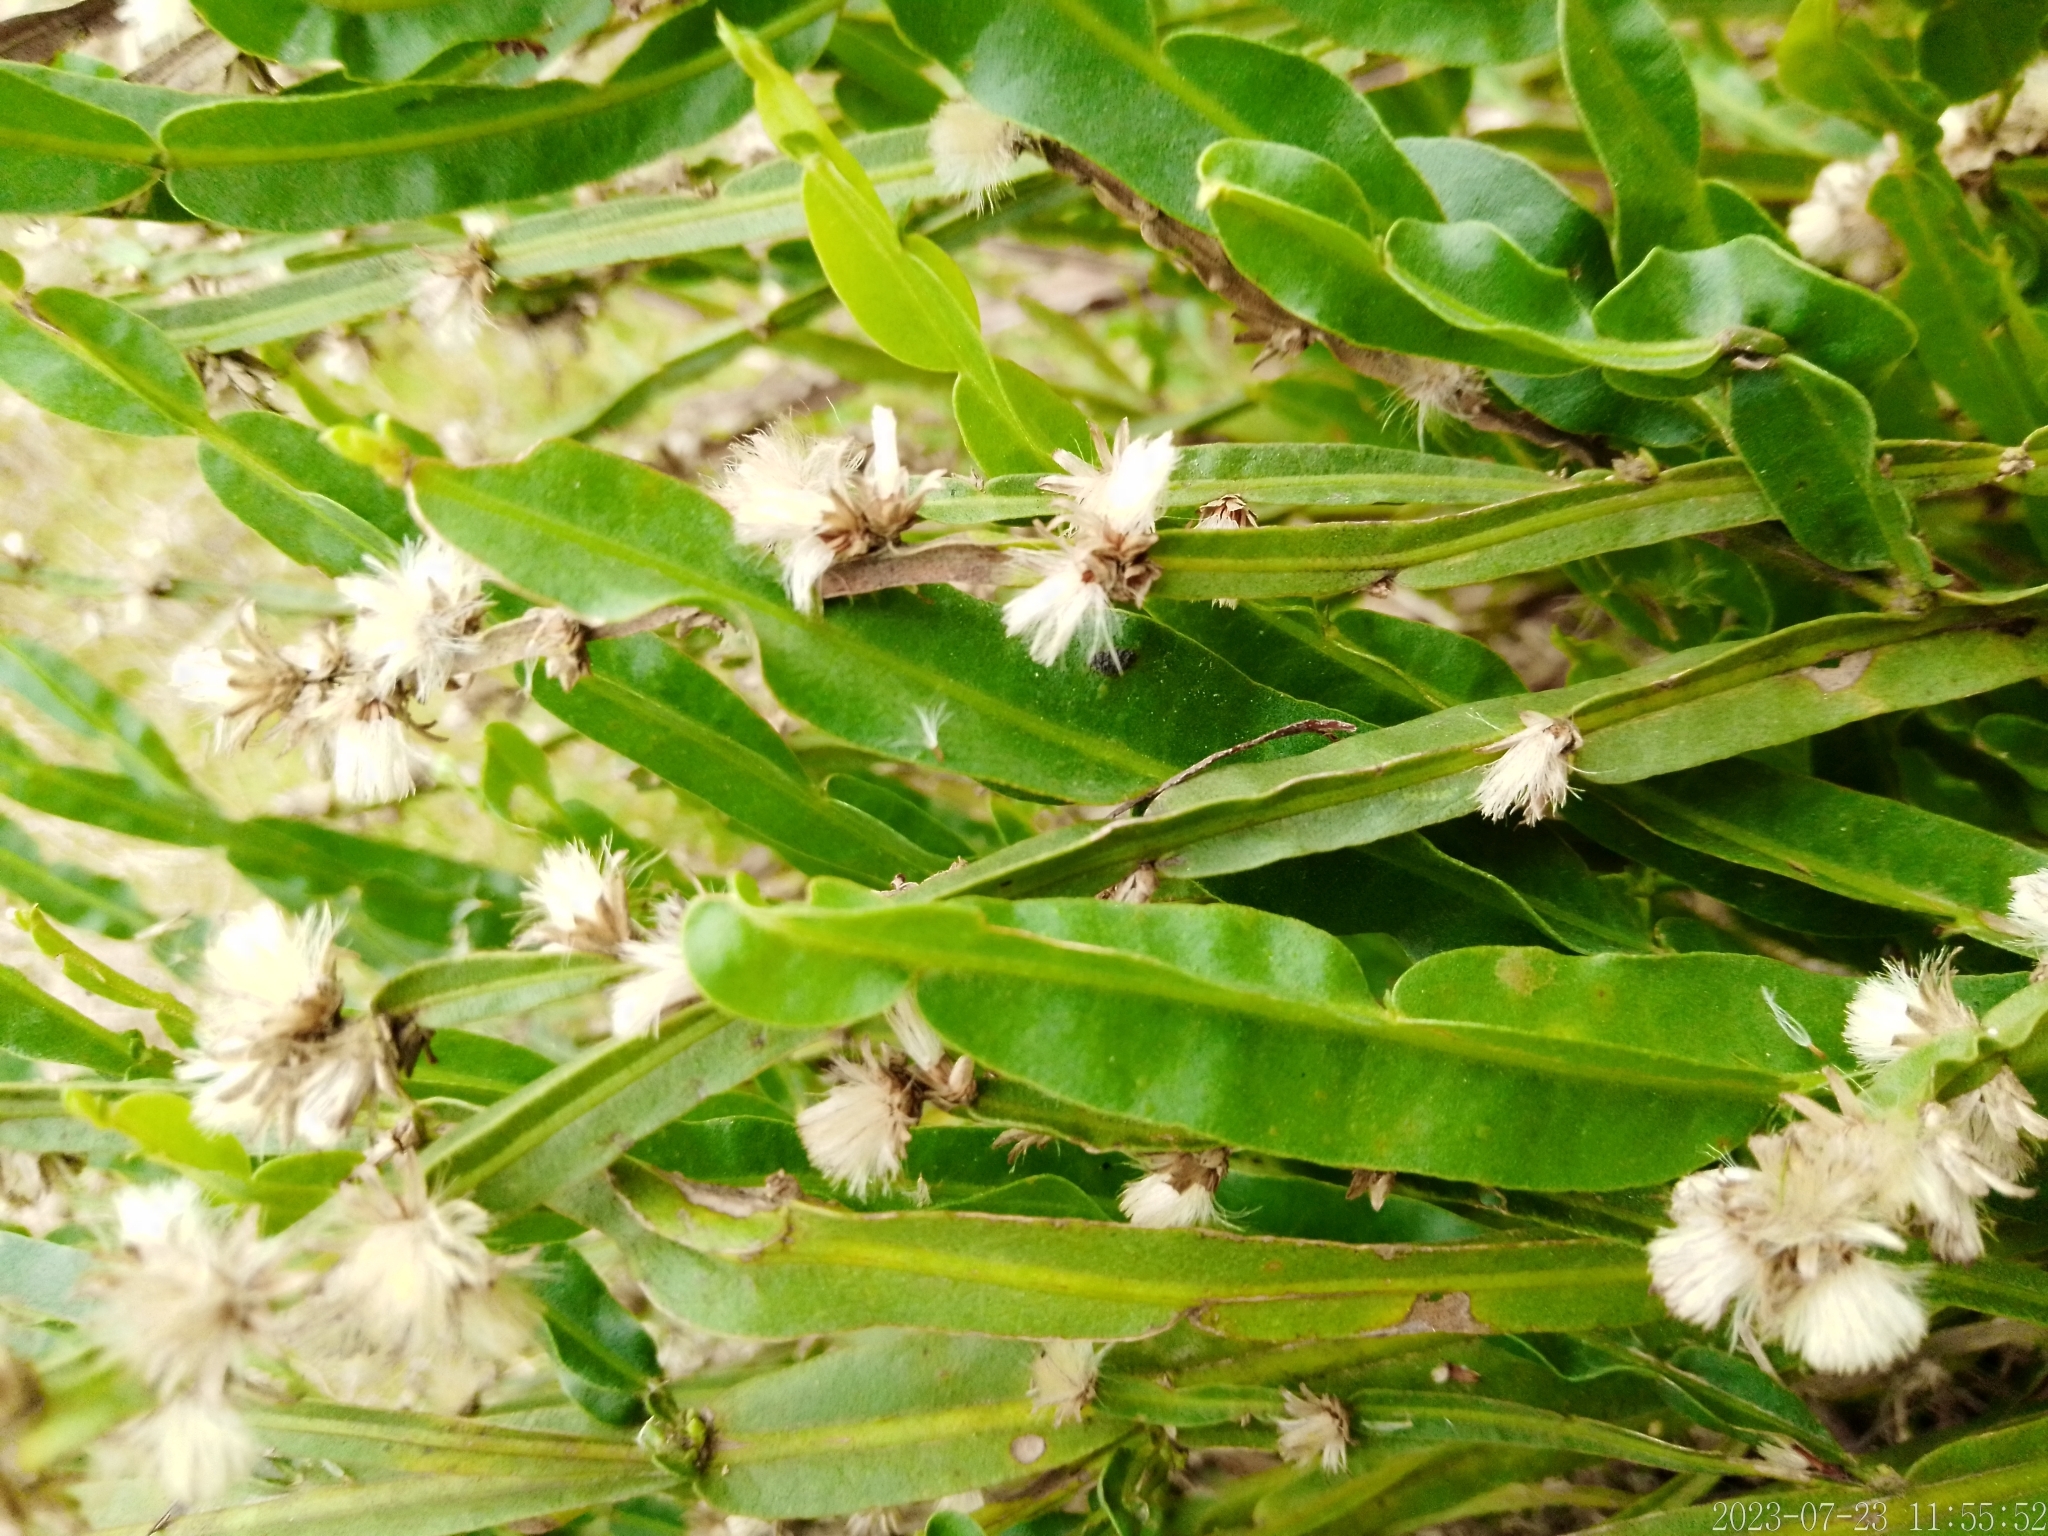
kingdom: Plantae
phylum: Tracheophyta
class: Magnoliopsida
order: Asterales
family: Asteraceae
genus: Baccharis
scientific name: Baccharis trimera
